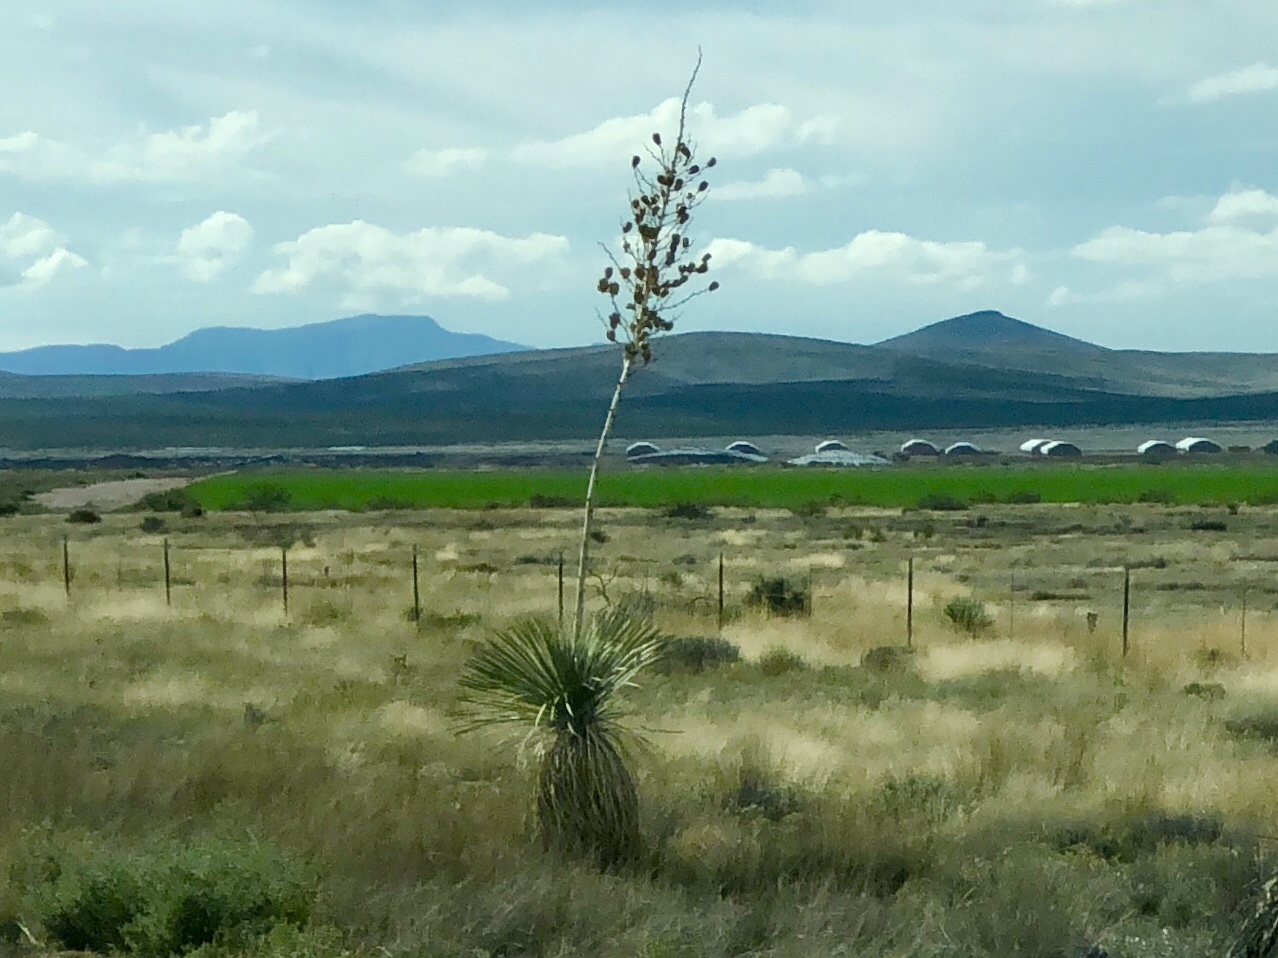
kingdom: Plantae
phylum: Tracheophyta
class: Liliopsida
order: Asparagales
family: Asparagaceae
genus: Yucca
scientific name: Yucca elata
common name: Palmella
